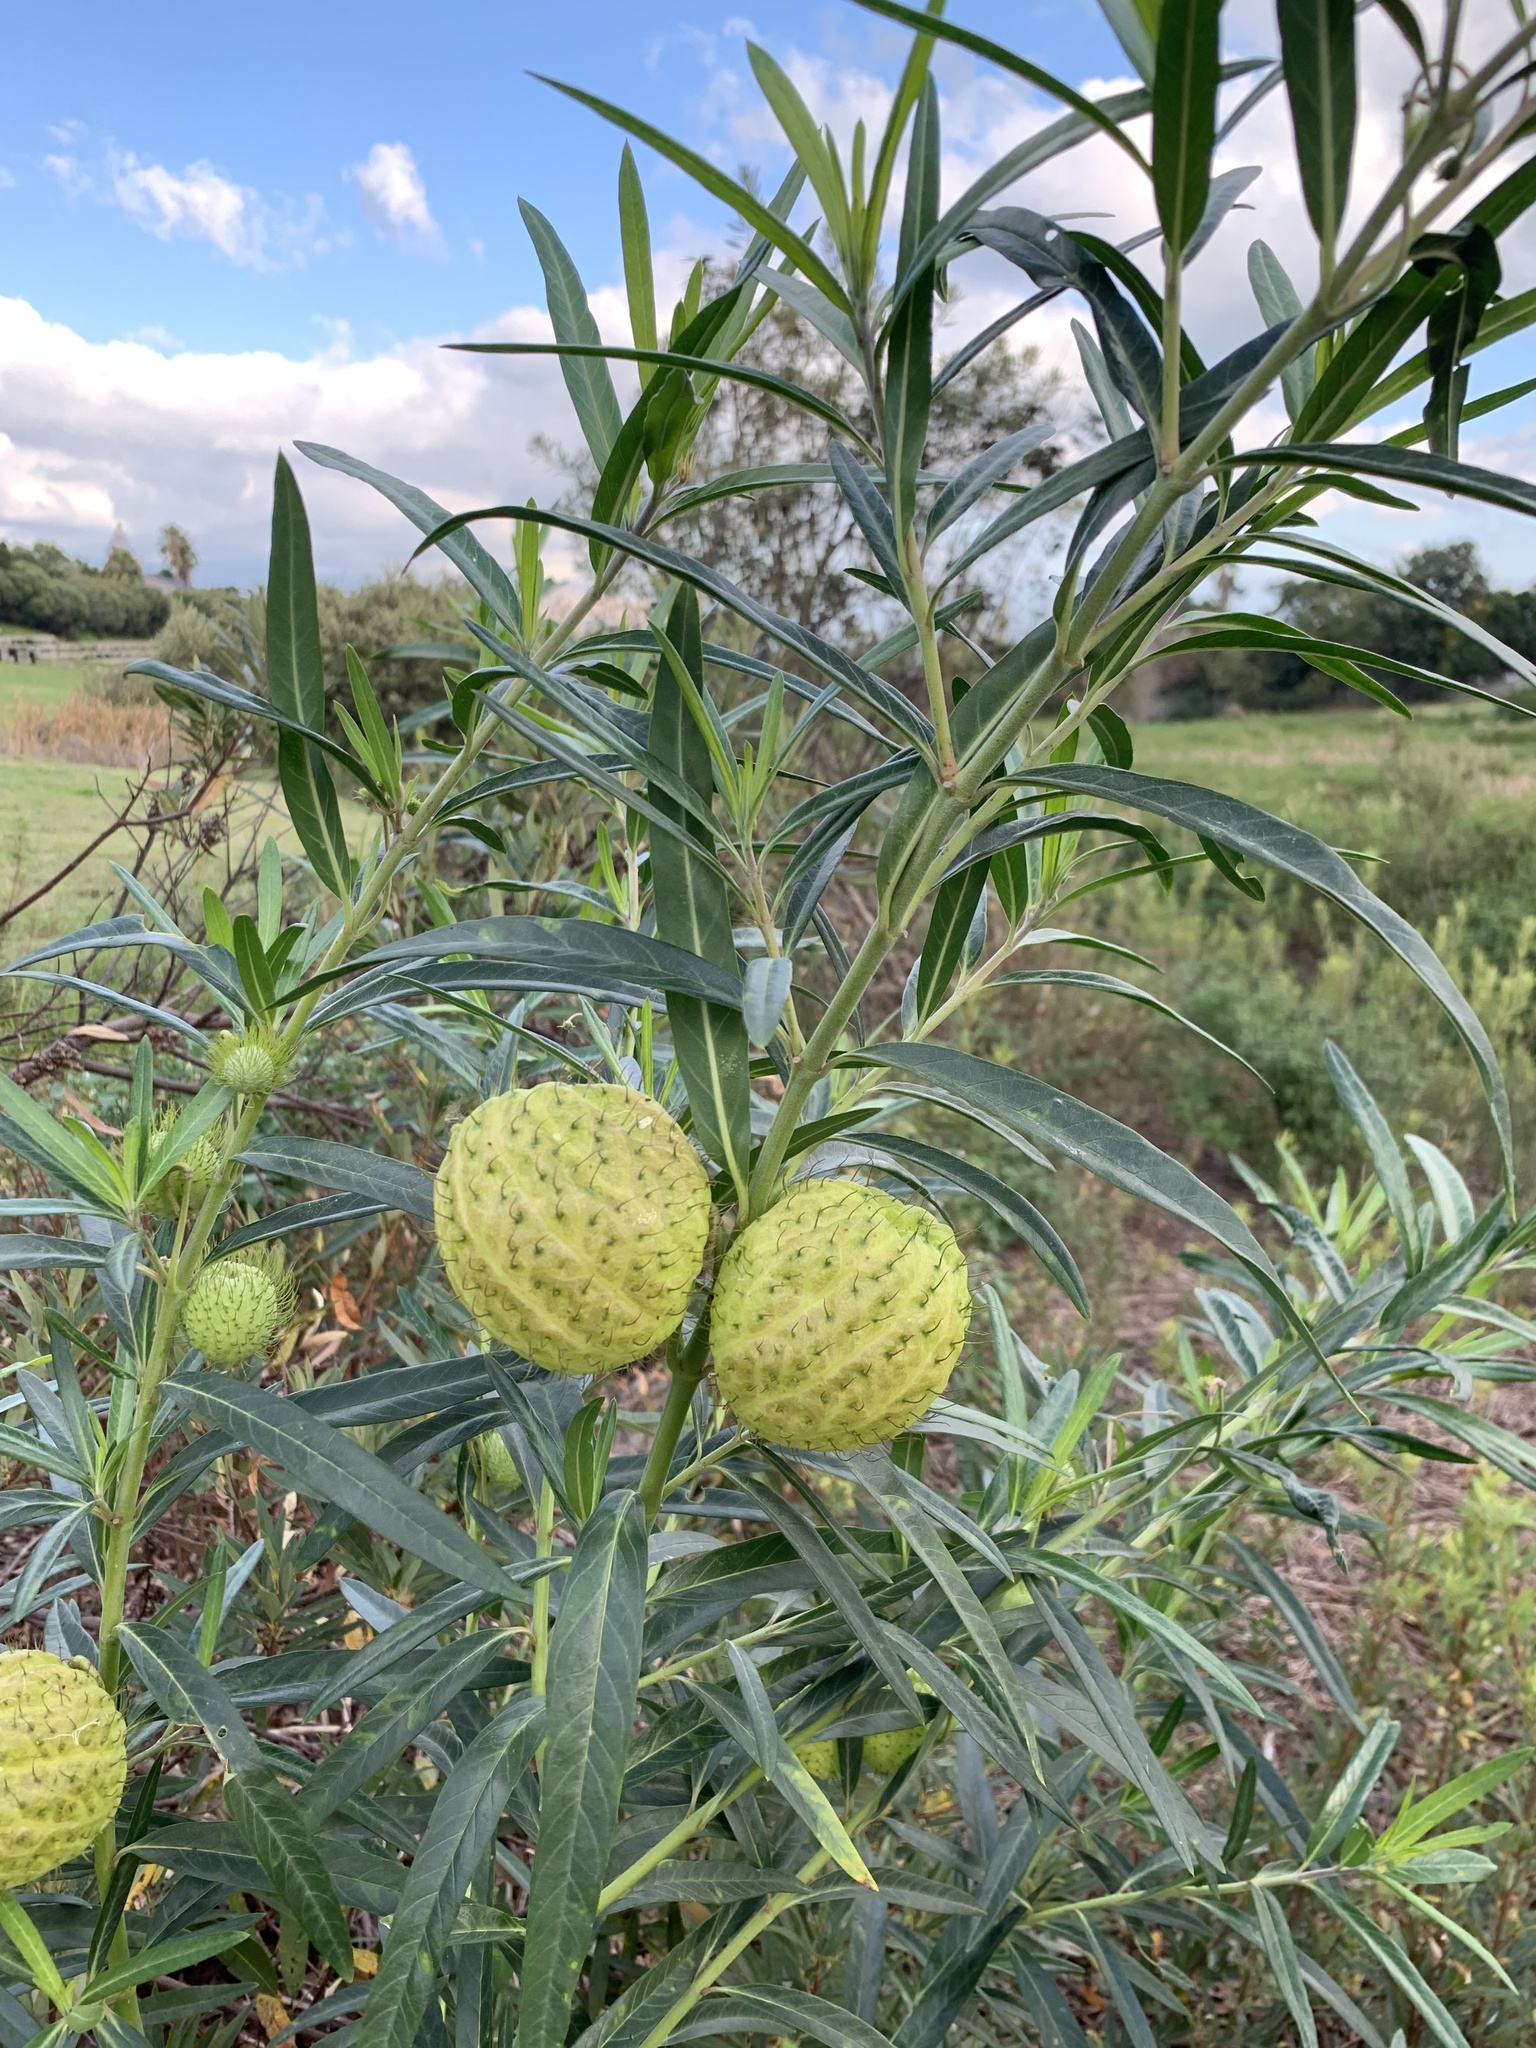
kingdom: Plantae
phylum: Tracheophyta
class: Magnoliopsida
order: Gentianales
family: Apocynaceae
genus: Gomphocarpus
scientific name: Gomphocarpus physocarpus
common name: Balloon cotton bush
